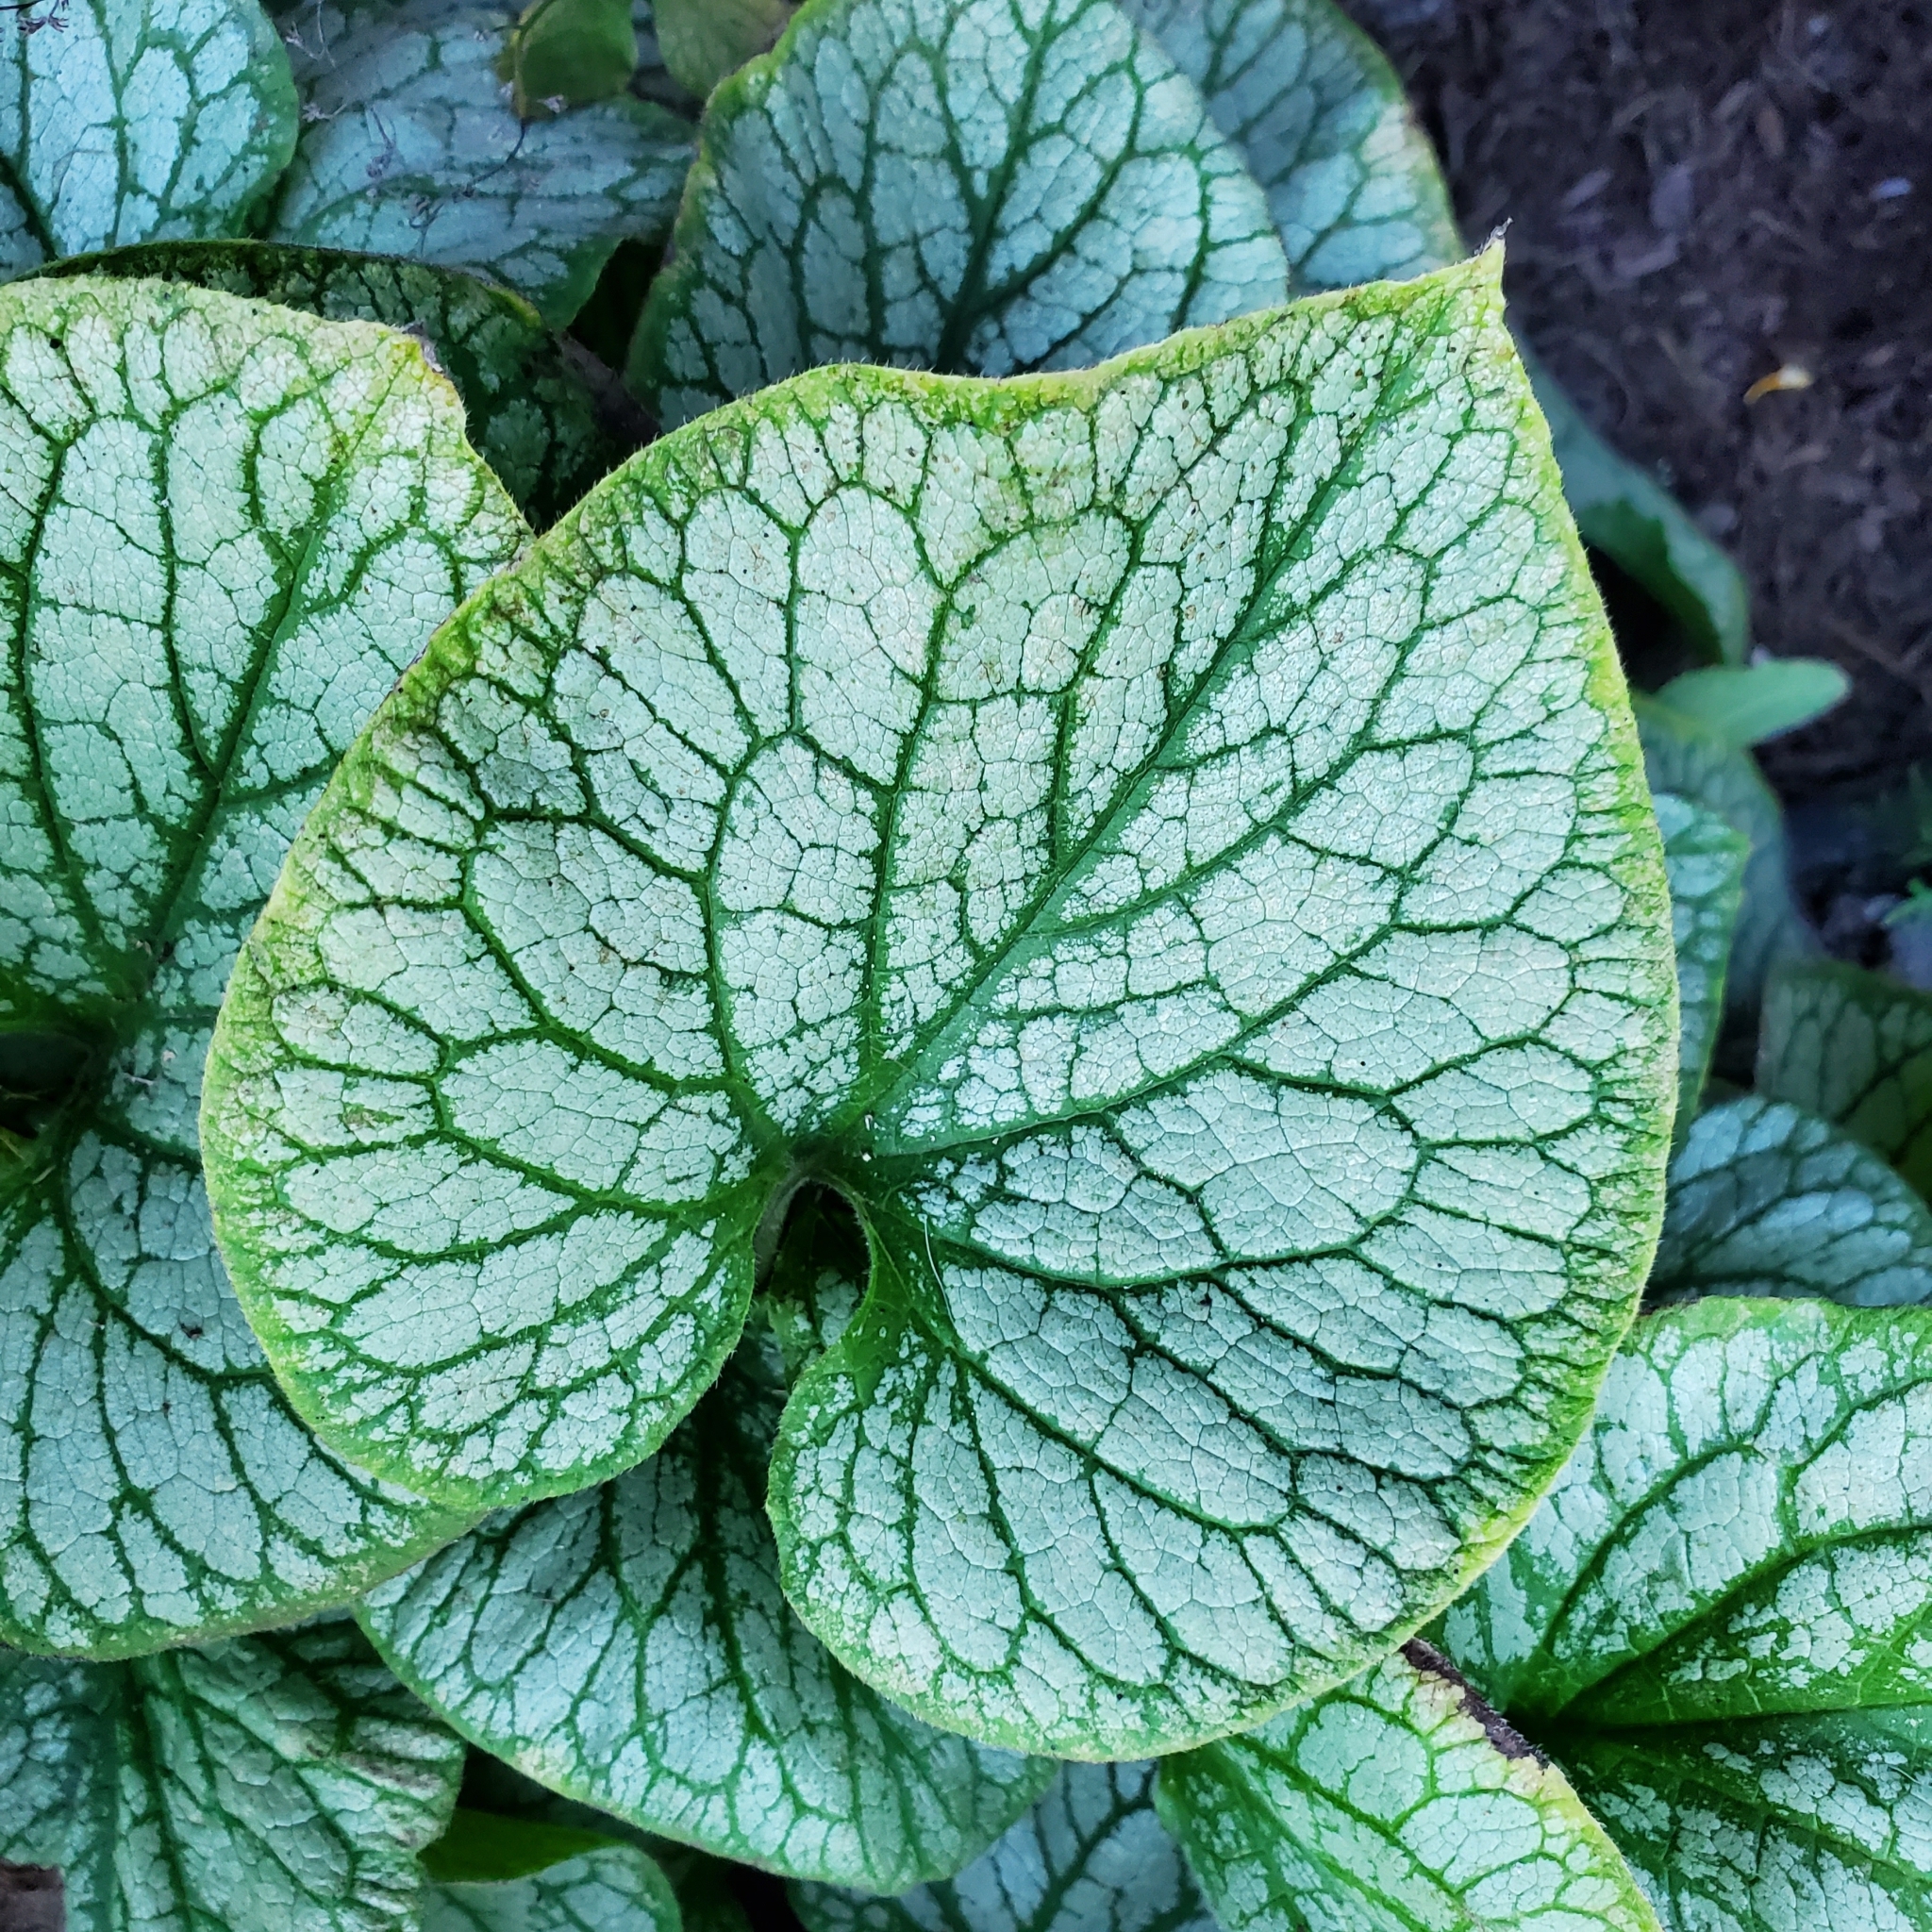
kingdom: Plantae
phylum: Tracheophyta
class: Magnoliopsida
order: Boraginales
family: Boraginaceae
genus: Brunnera
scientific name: Brunnera macrophylla
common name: Great forget-me-not
